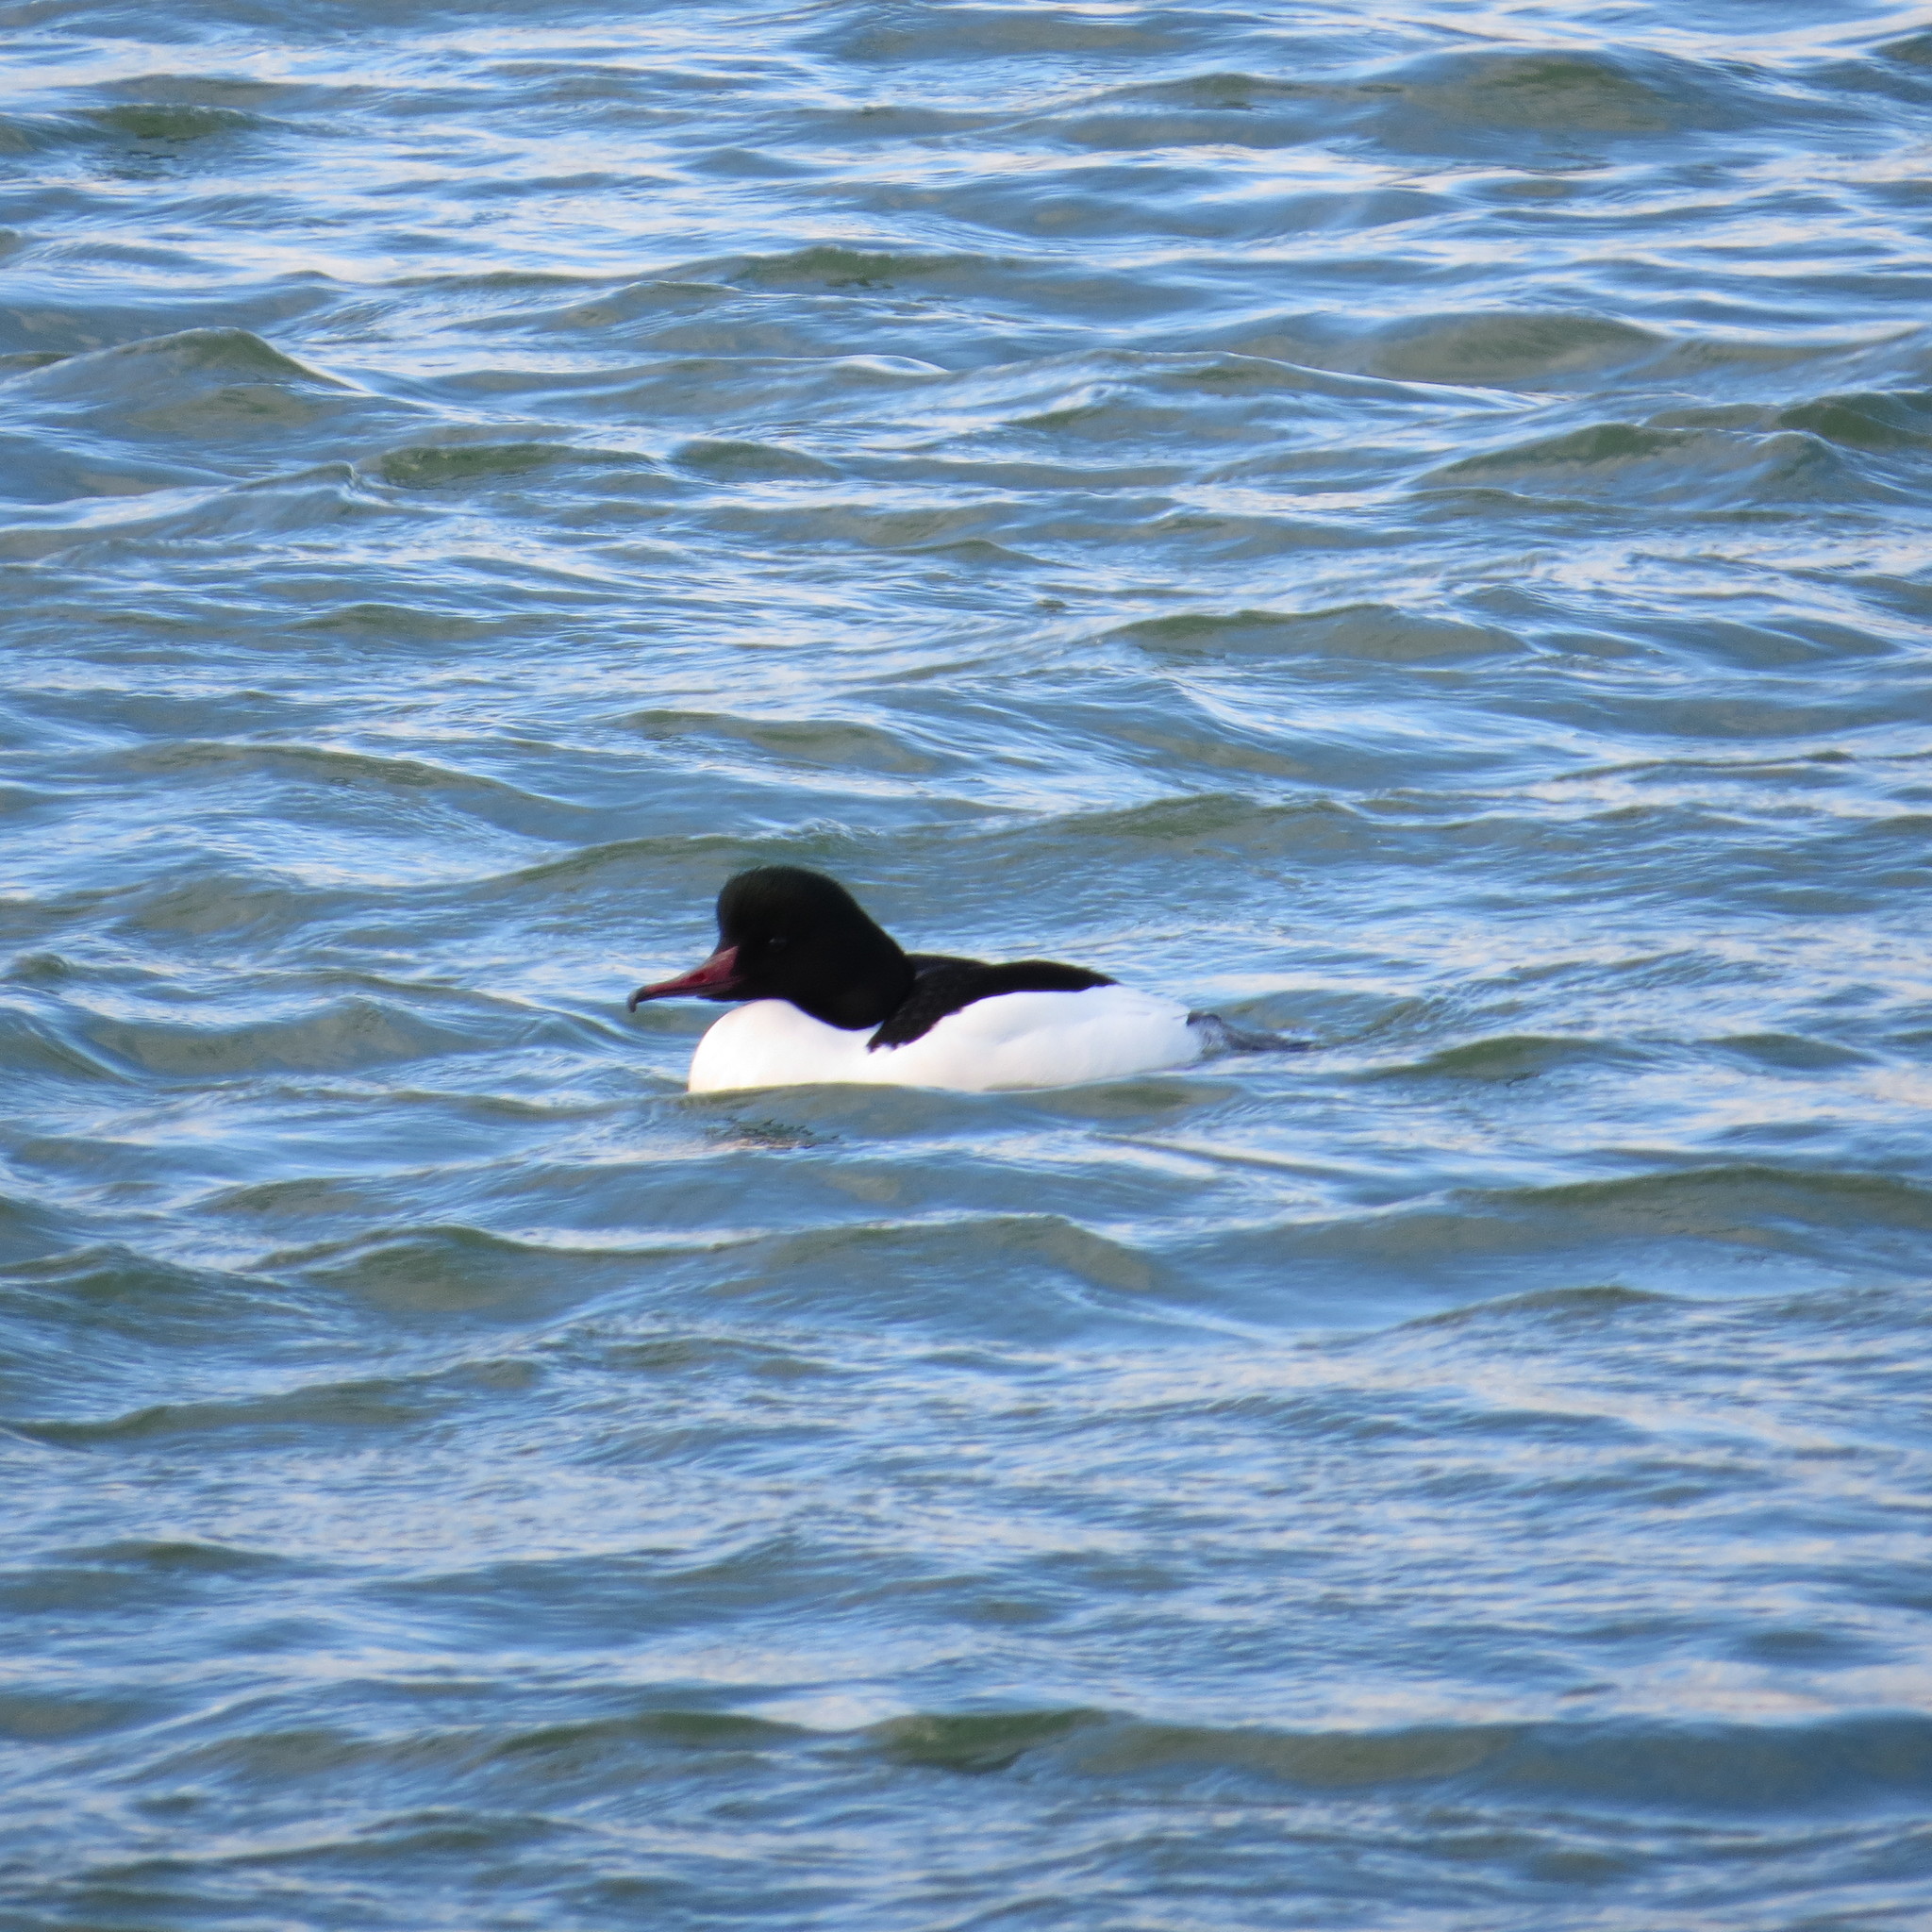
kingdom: Animalia
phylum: Chordata
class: Aves
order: Anseriformes
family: Anatidae
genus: Mergus
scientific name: Mergus merganser
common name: Common merganser
